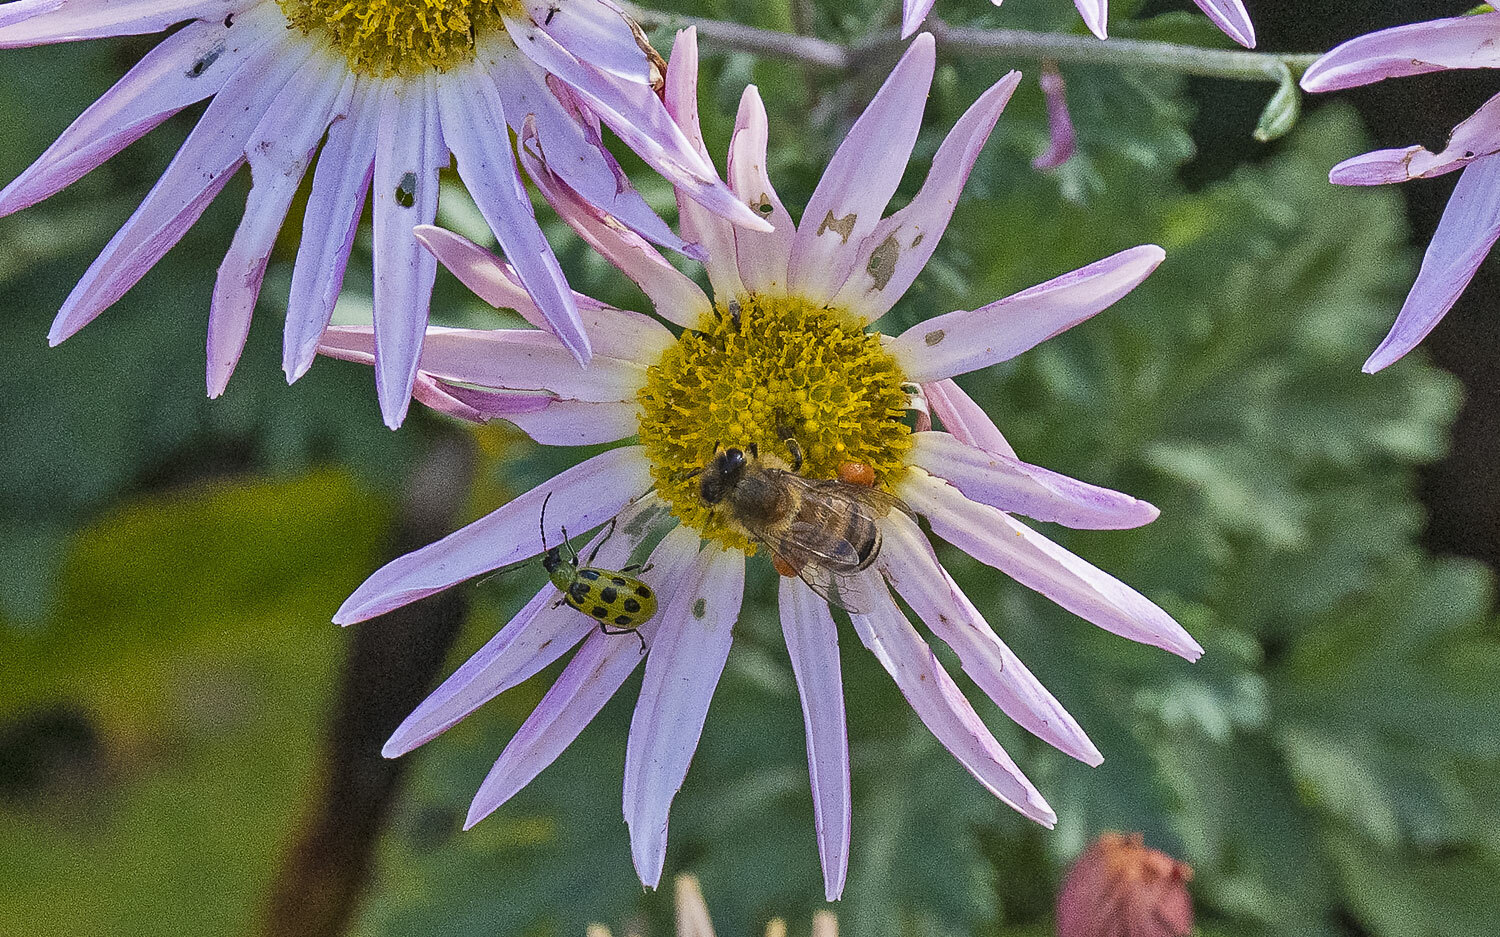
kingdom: Animalia
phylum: Arthropoda
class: Insecta
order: Hymenoptera
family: Apidae
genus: Apis
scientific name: Apis mellifera
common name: Honey bee
